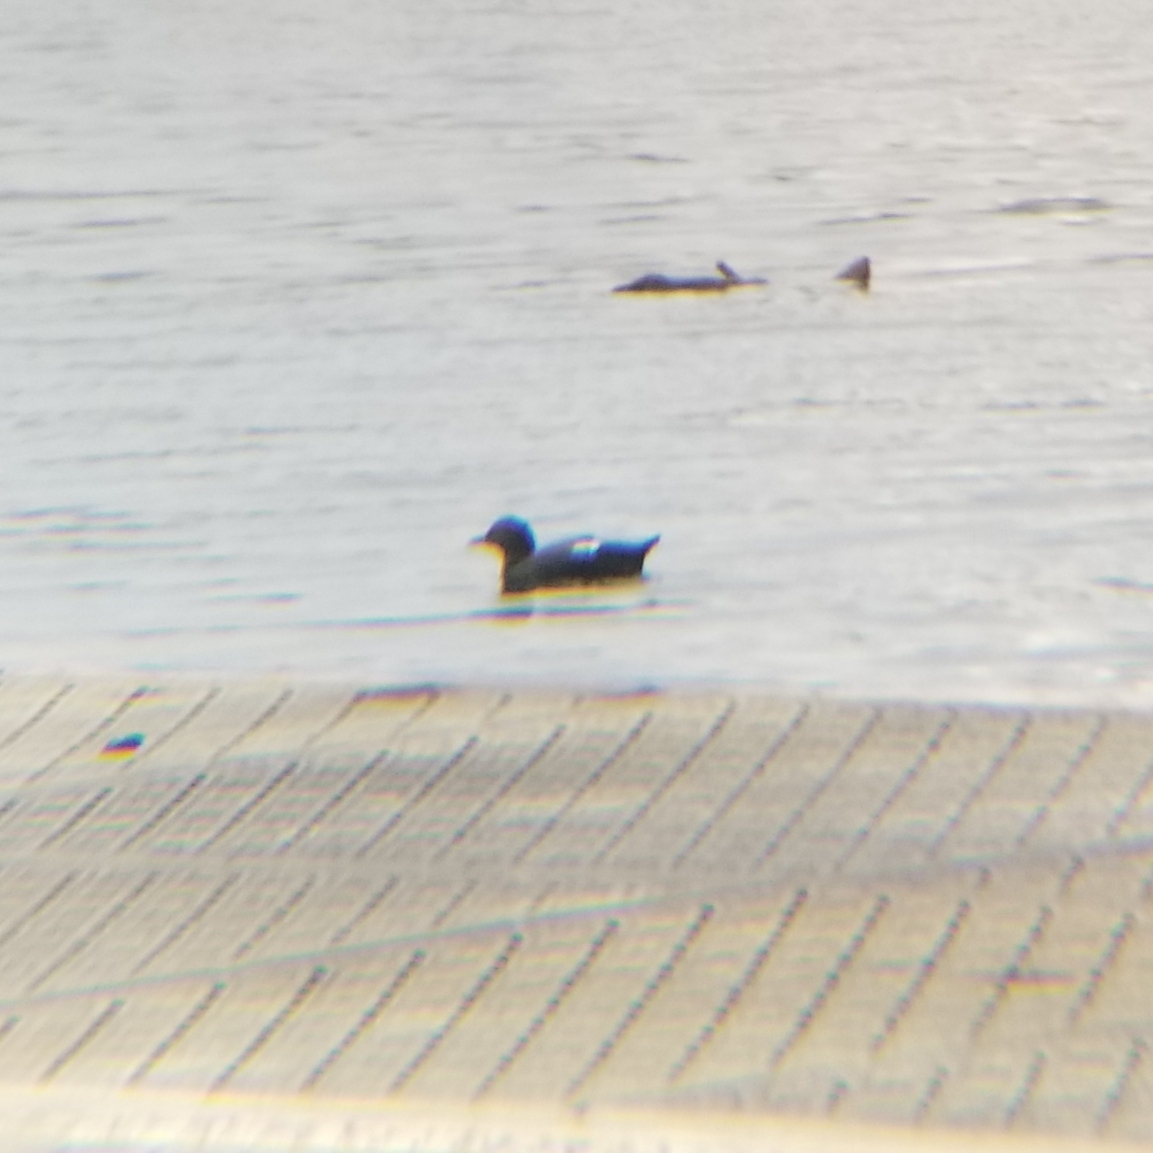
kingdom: Animalia
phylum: Chordata
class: Aves
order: Charadriiformes
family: Alcidae
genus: Cepphus
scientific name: Cepphus columba
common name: Pigeon guillemot
